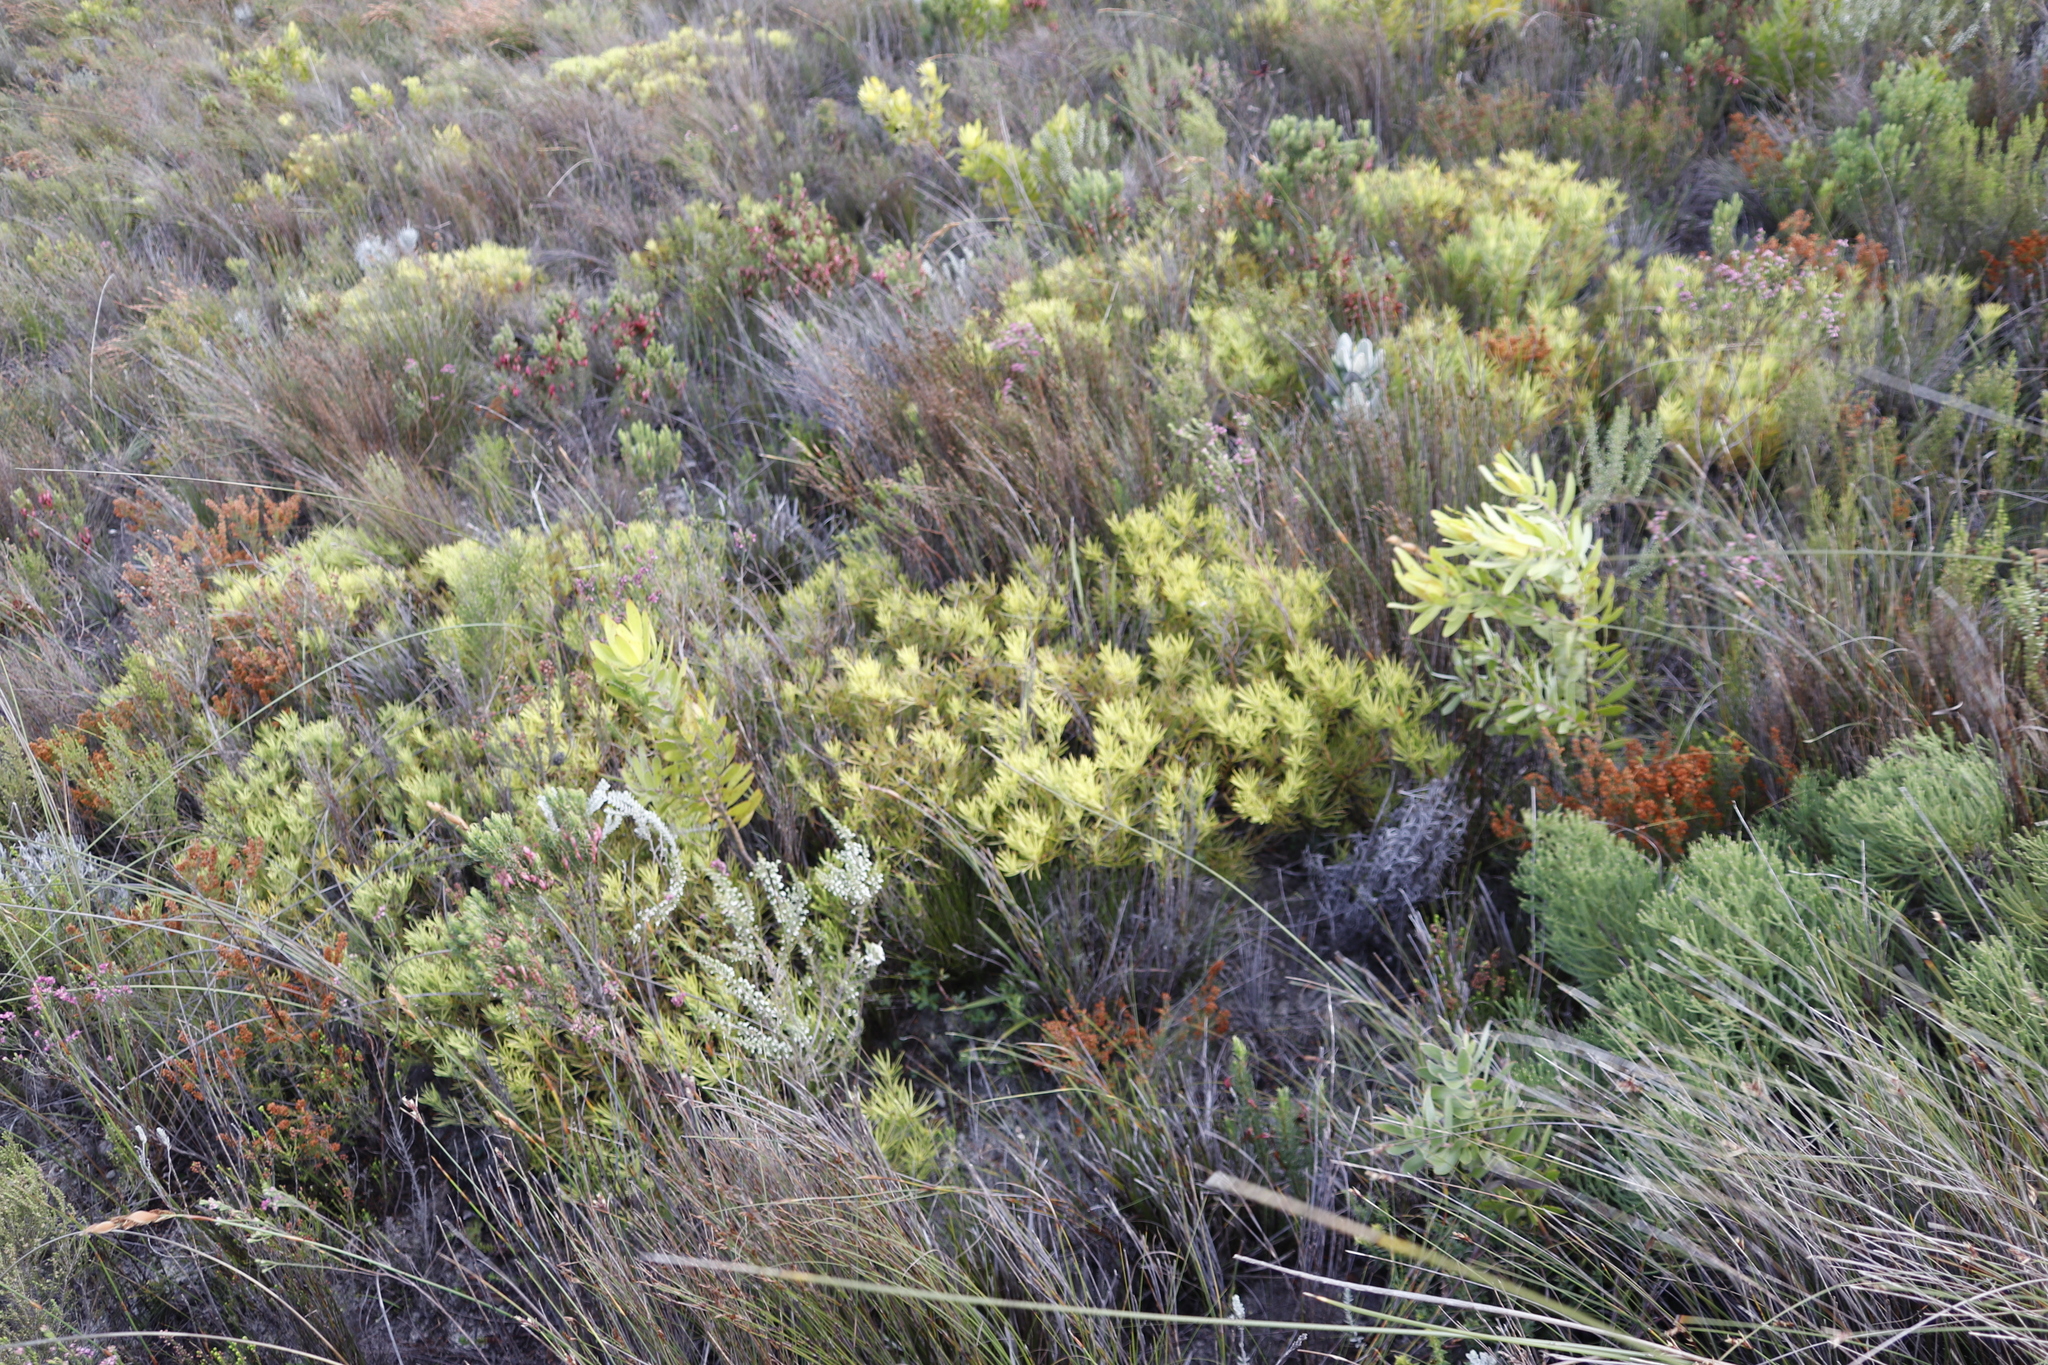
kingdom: Plantae
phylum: Tracheophyta
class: Magnoliopsida
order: Proteales
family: Proteaceae
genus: Leucadendron
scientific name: Leucadendron salignum
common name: Common sunshine conebush
